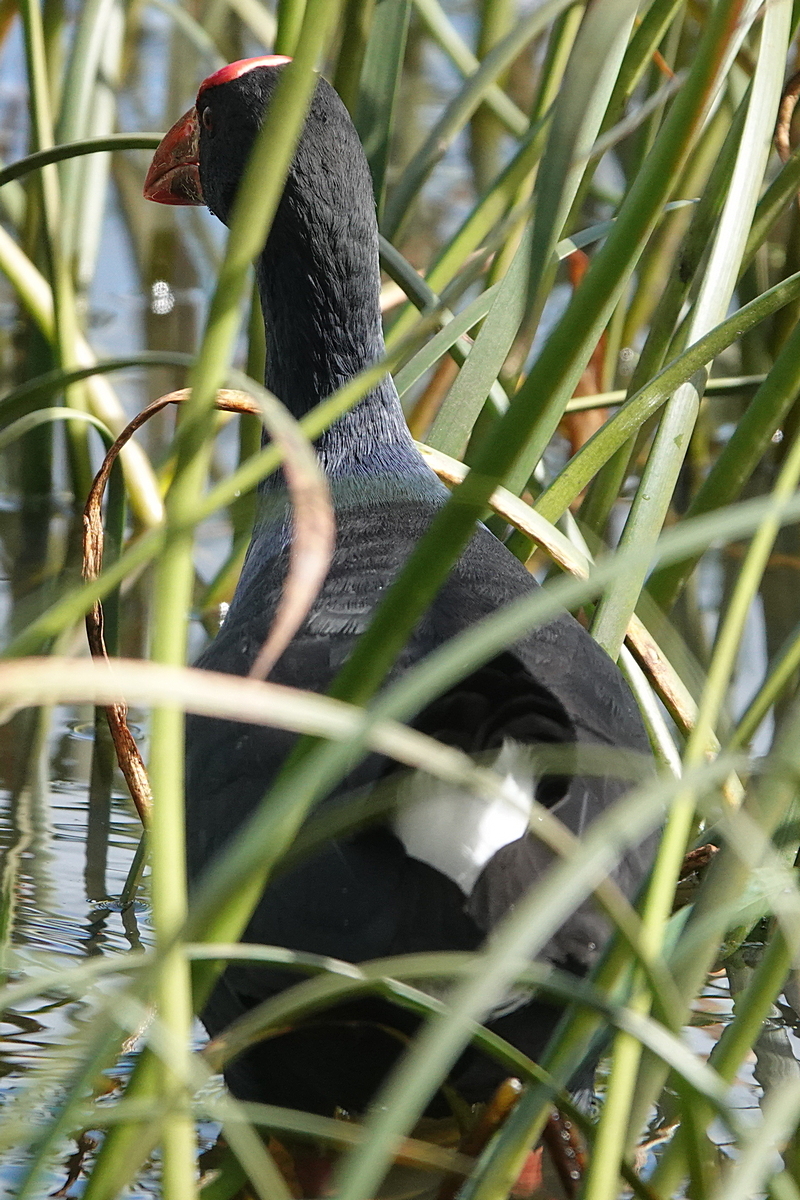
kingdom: Animalia
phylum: Chordata
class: Aves
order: Gruiformes
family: Rallidae
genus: Porphyrio
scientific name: Porphyrio melanotus
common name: Australasian swamphen
